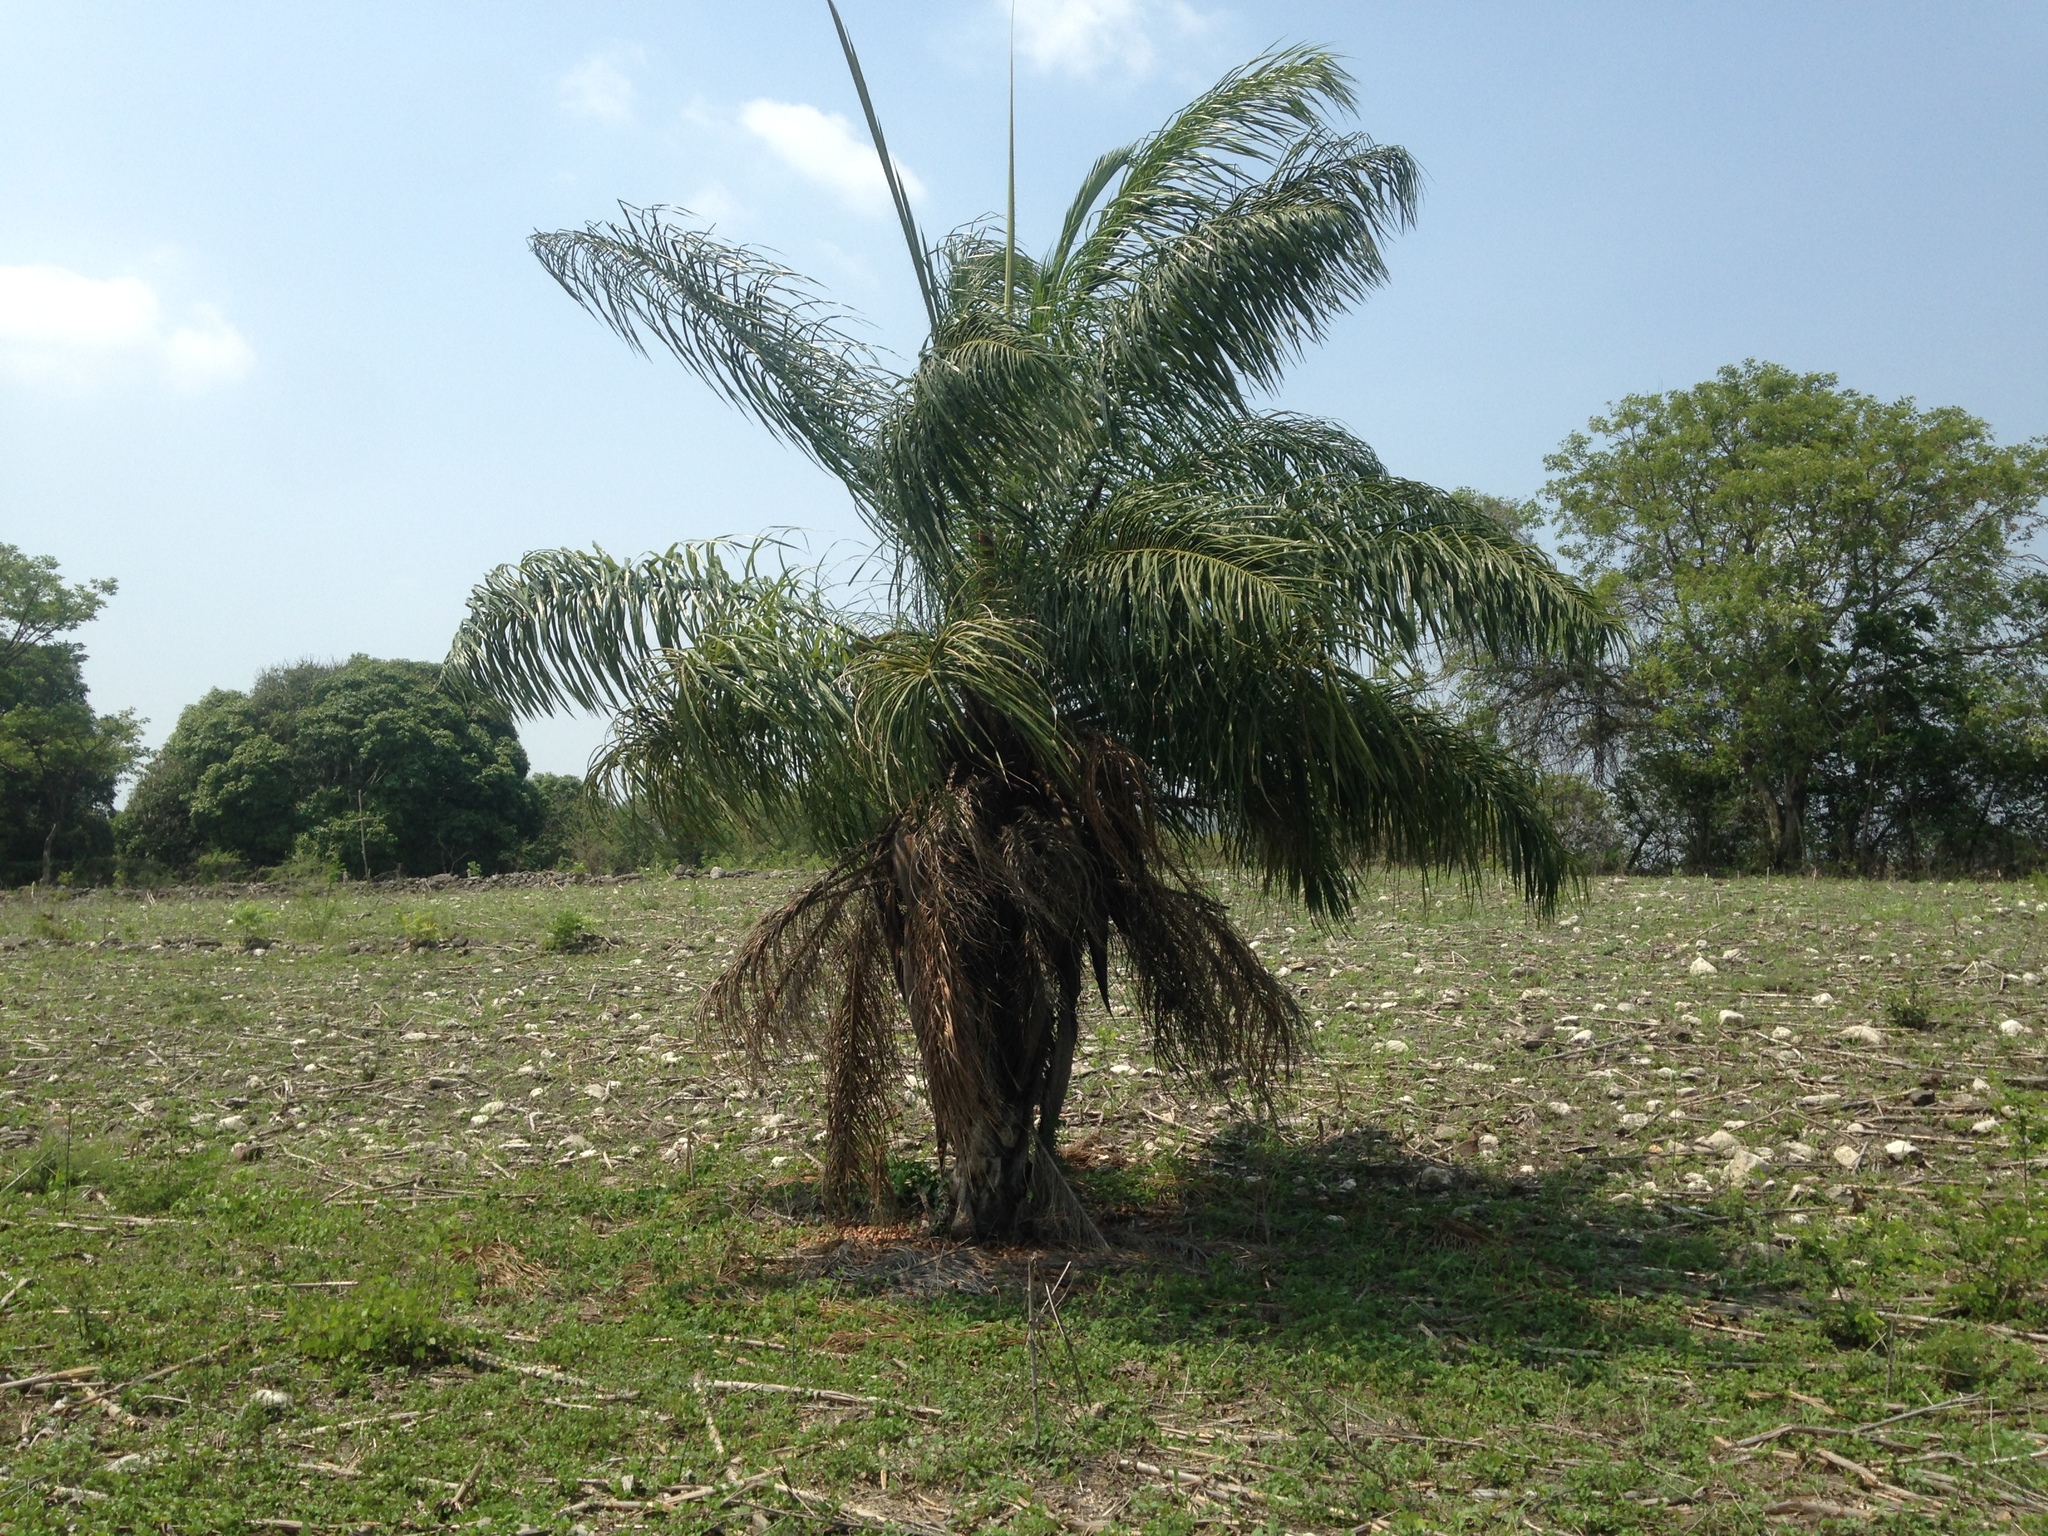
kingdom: Plantae
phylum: Tracheophyta
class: Liliopsida
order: Arecales
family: Arecaceae
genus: Acrocomia
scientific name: Acrocomia aculeata
